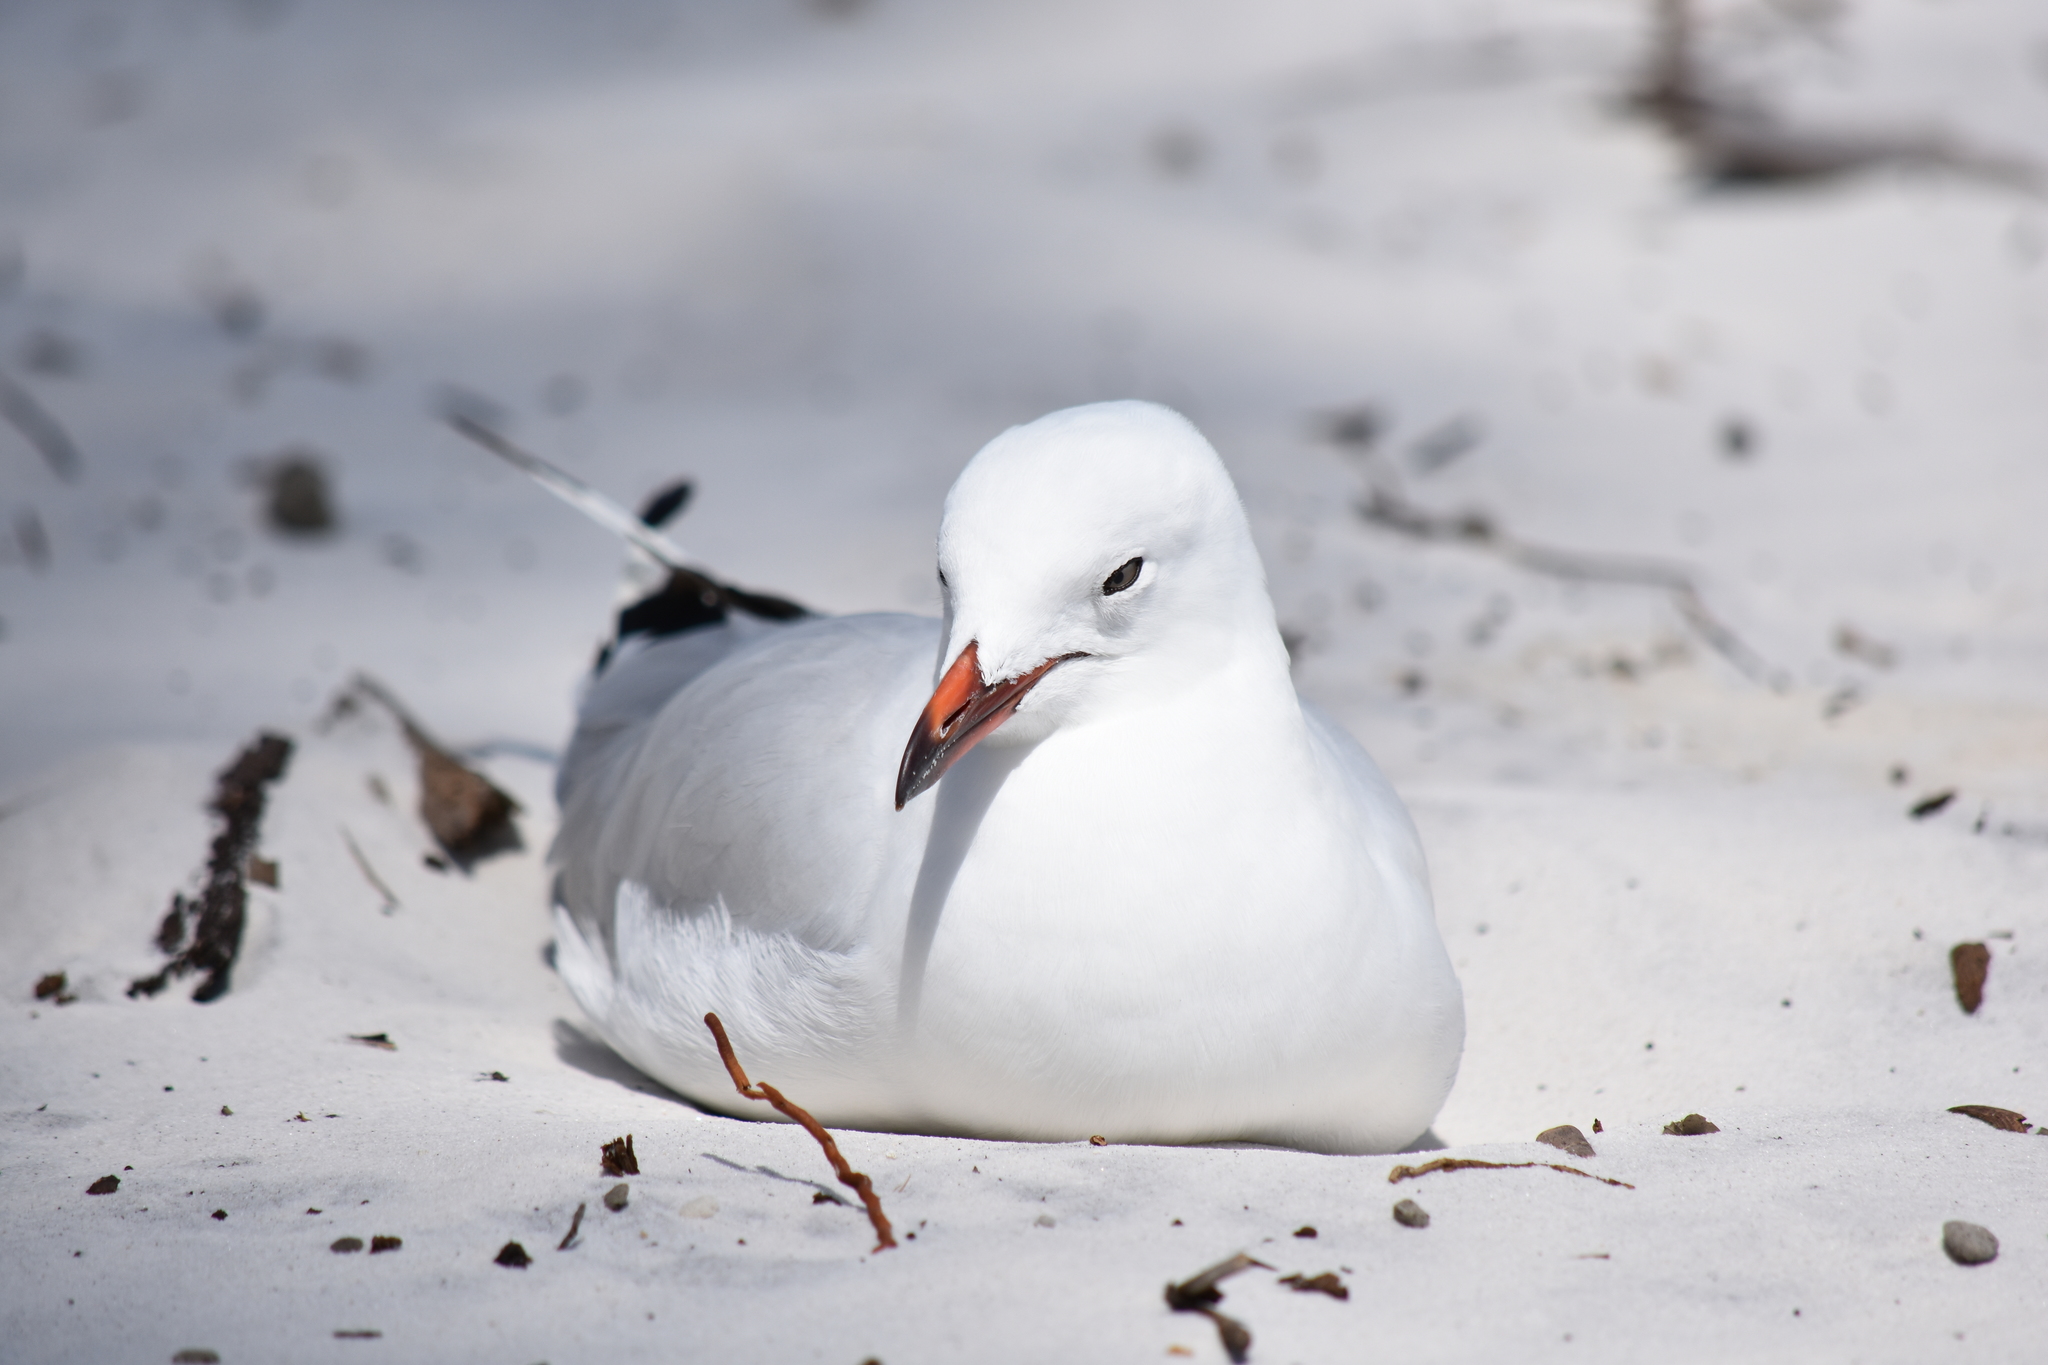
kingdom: Animalia
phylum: Chordata
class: Aves
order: Charadriiformes
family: Laridae
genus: Chroicocephalus
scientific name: Chroicocephalus novaehollandiae
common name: Silver gull
